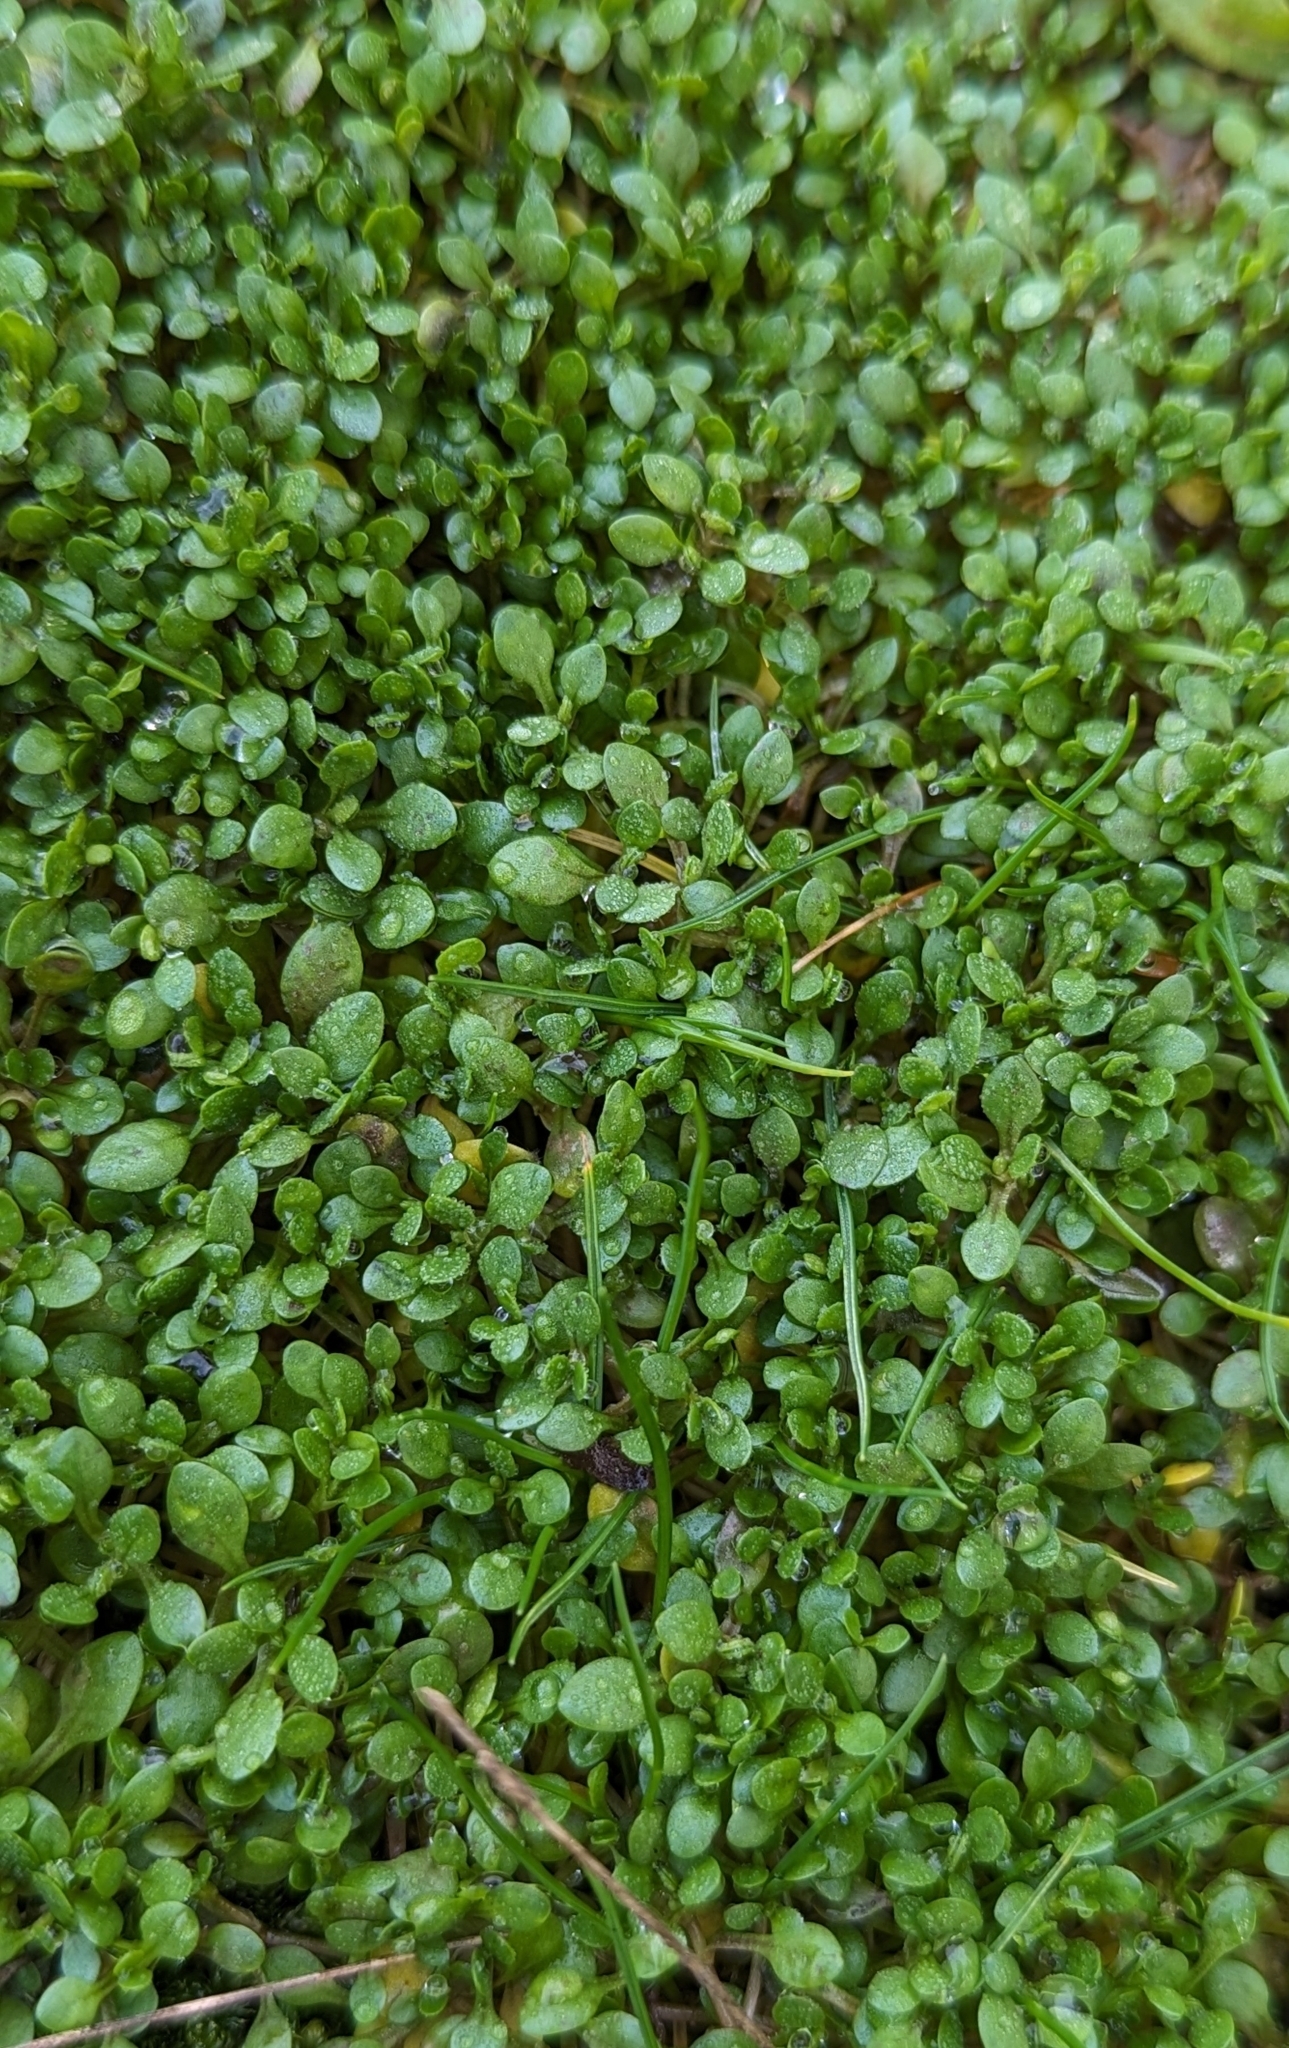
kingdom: Plantae
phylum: Tracheophyta
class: Magnoliopsida
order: Caryophyllales
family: Montiaceae
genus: Montia
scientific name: Montia fontana
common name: Blinks
